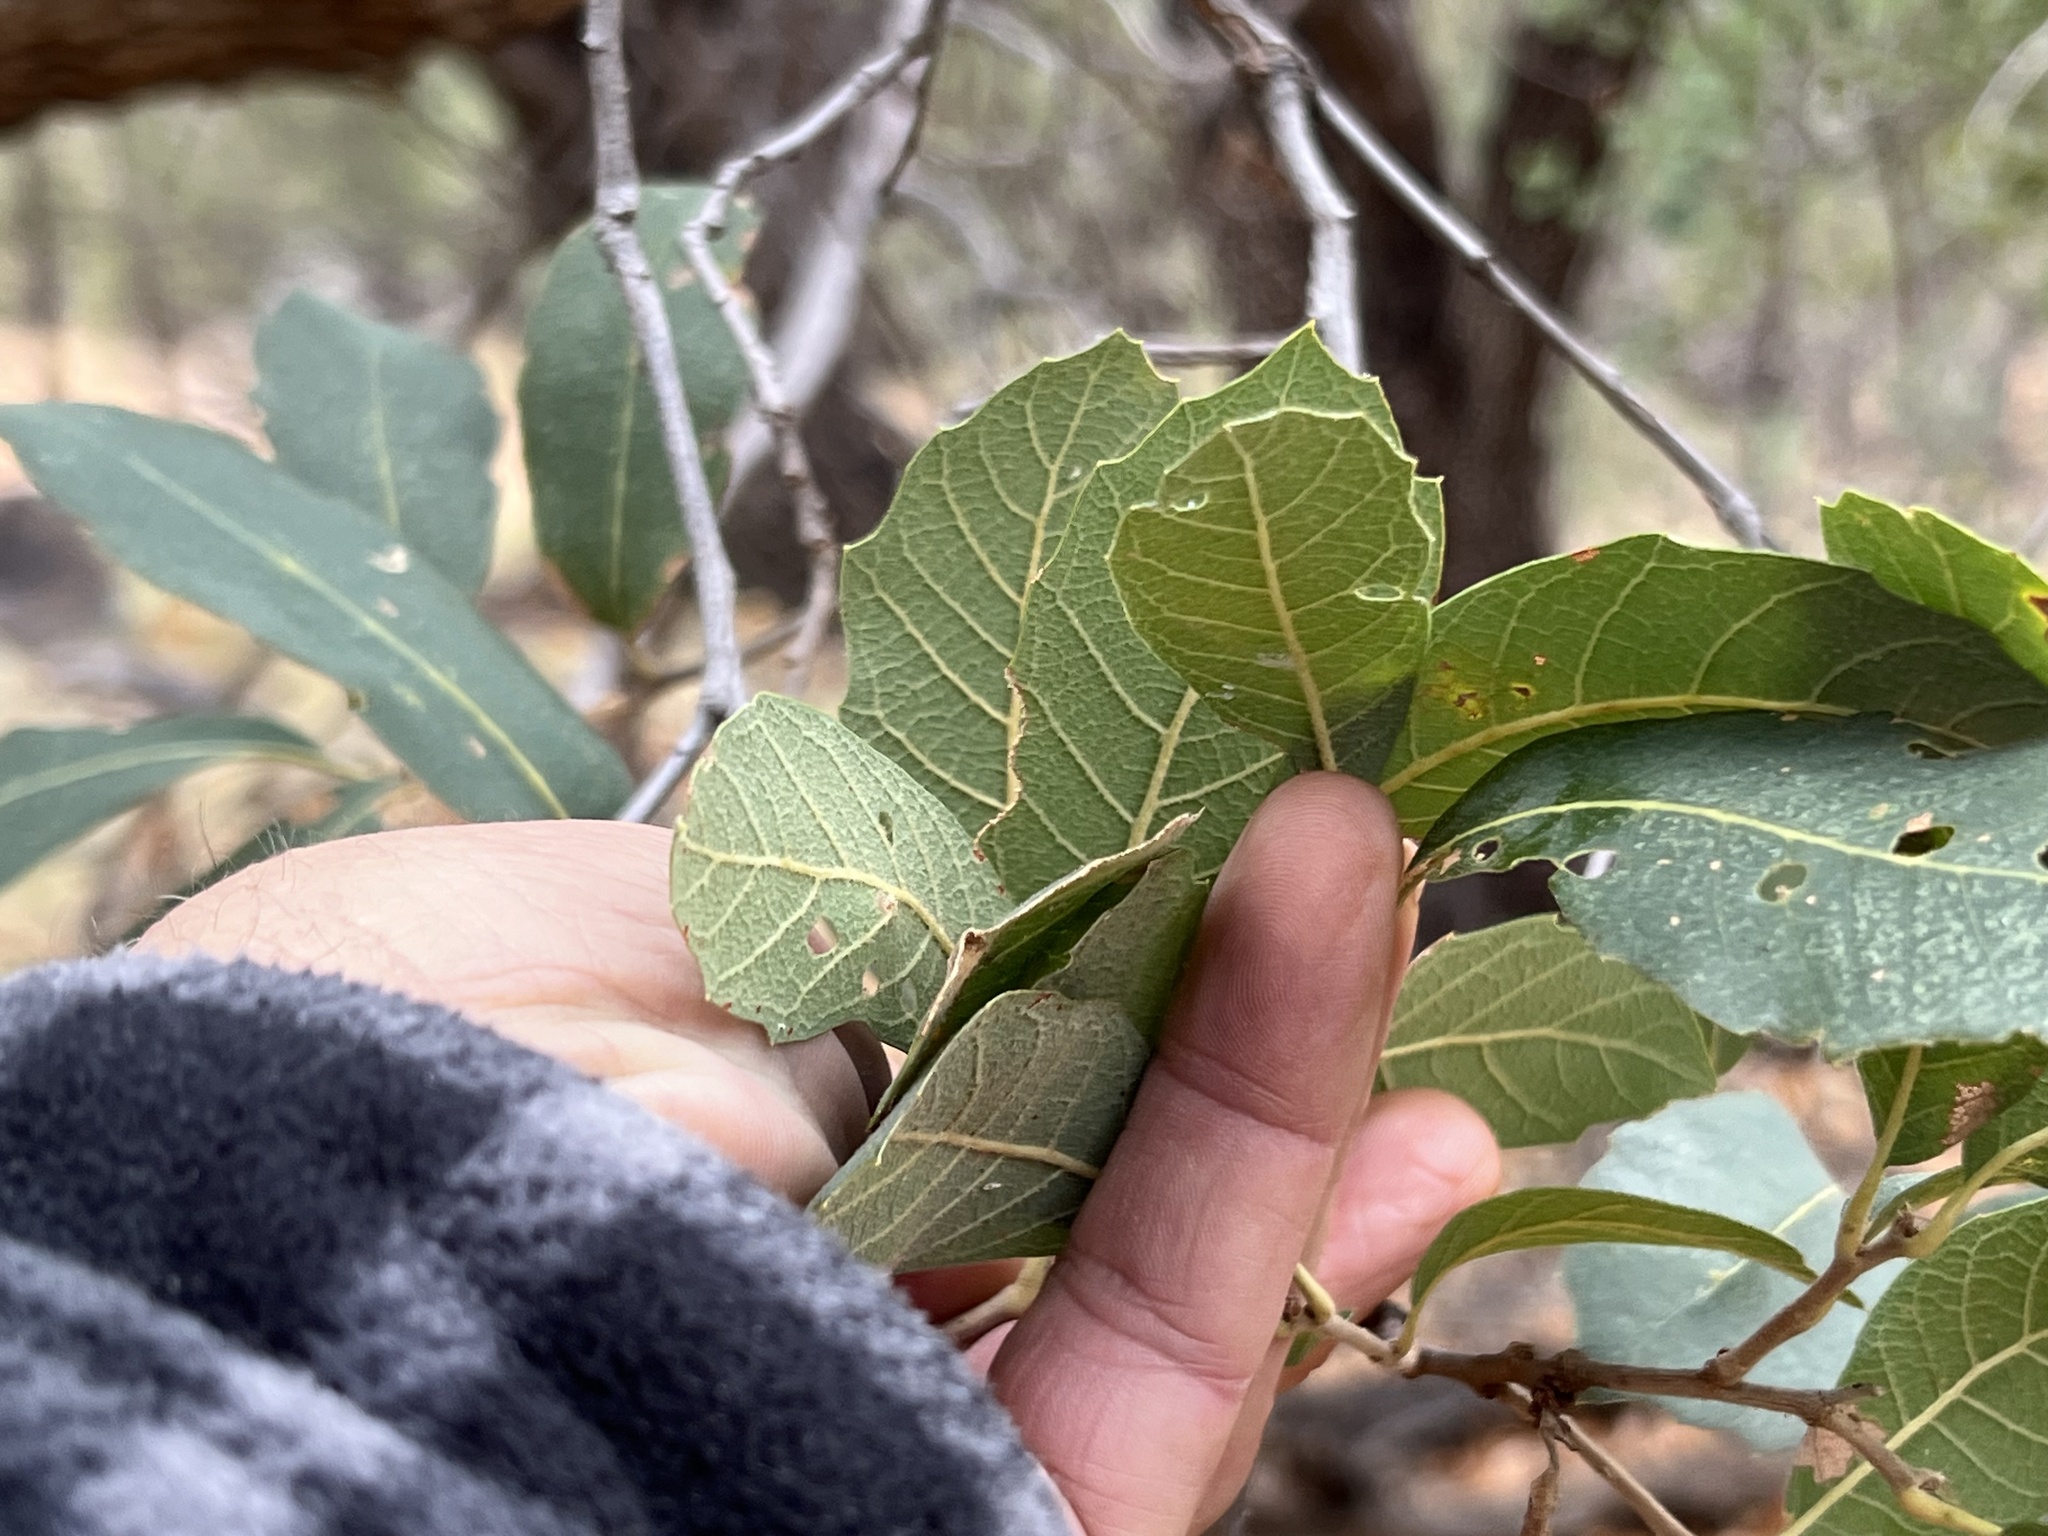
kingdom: Plantae
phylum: Tracheophyta
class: Magnoliopsida
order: Fagales
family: Fagaceae
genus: Quercus
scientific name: Quercus arizonica
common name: Arizona white oak
